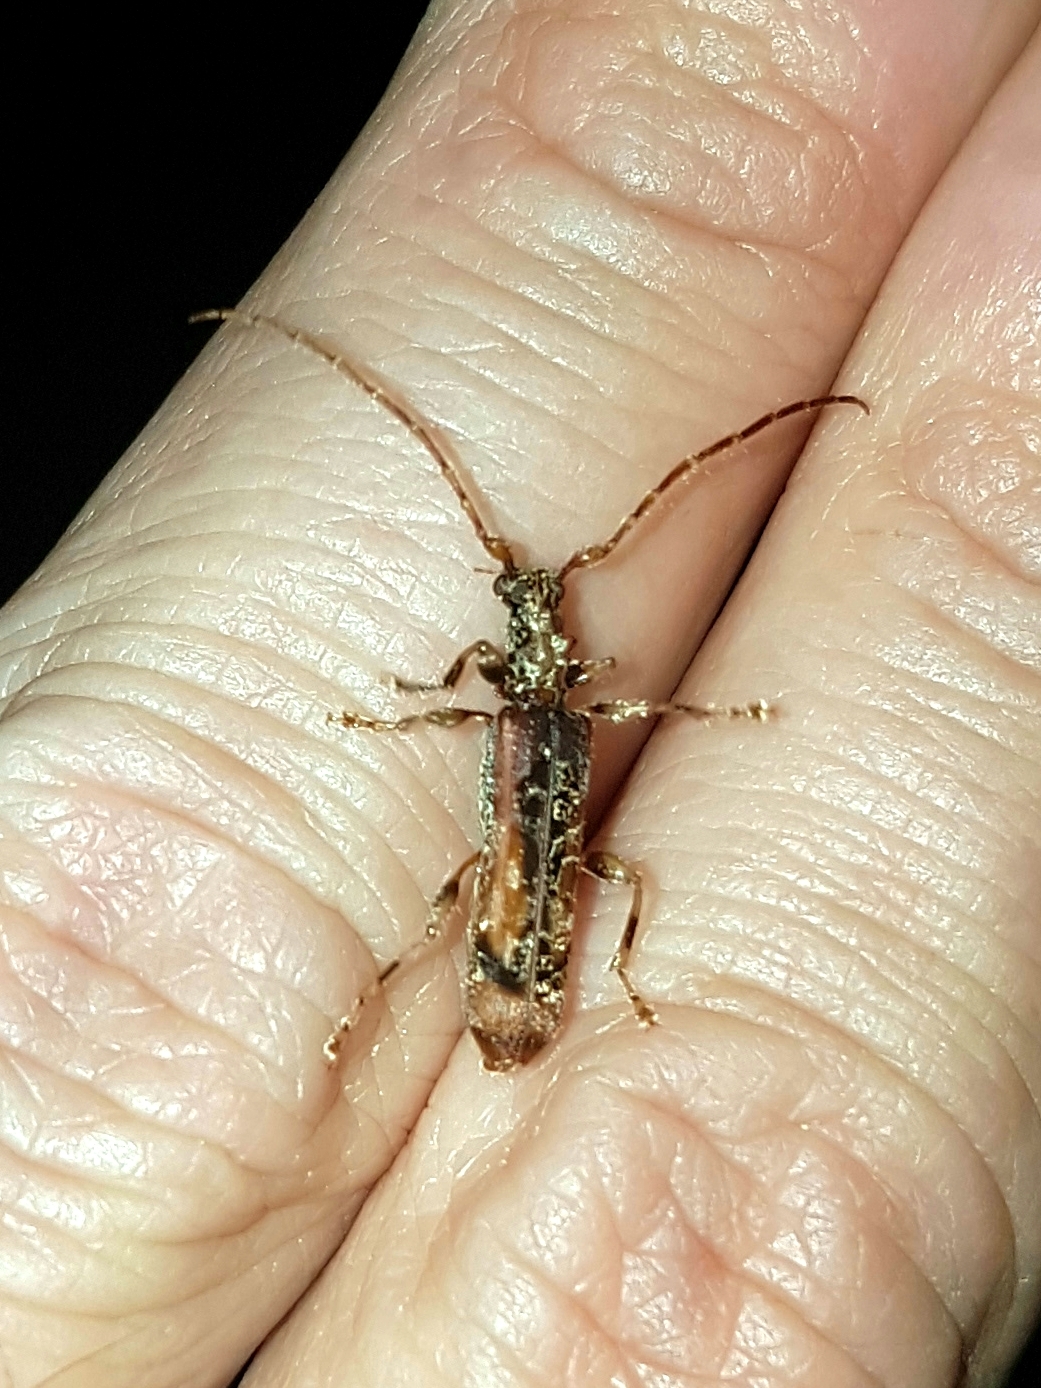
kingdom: Animalia
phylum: Arthropoda
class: Insecta
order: Coleoptera
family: Cerambycidae
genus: Tessaromma
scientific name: Tessaromma undatum
